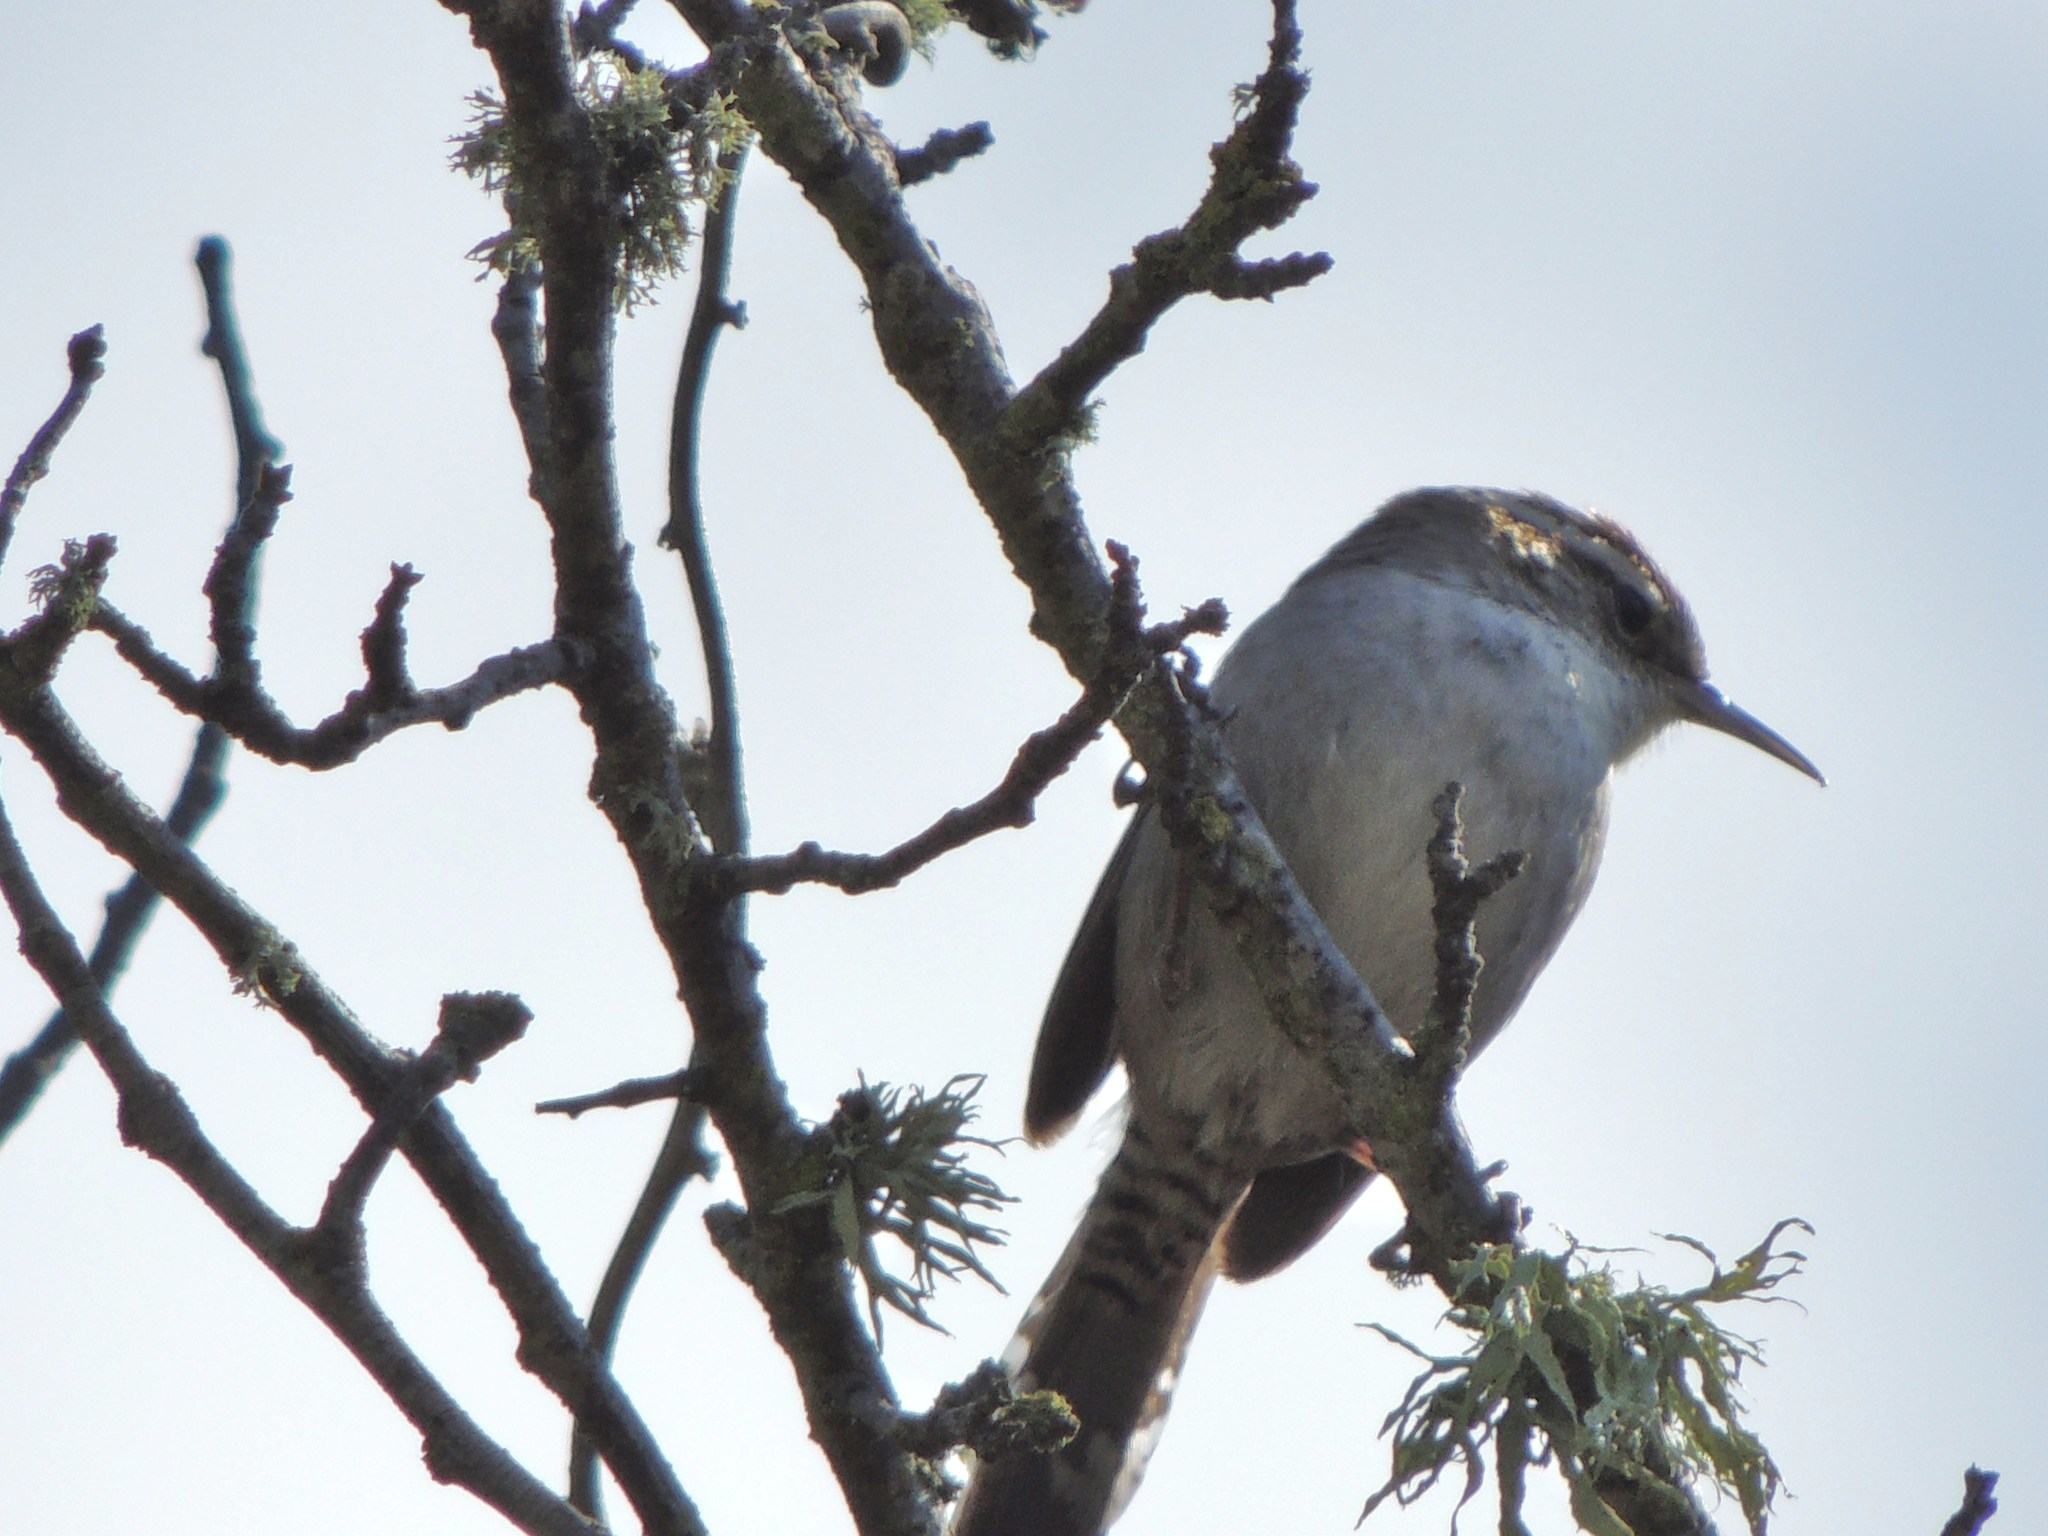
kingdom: Animalia
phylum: Chordata
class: Aves
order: Passeriformes
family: Troglodytidae
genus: Thryomanes
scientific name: Thryomanes bewickii
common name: Bewick's wren
